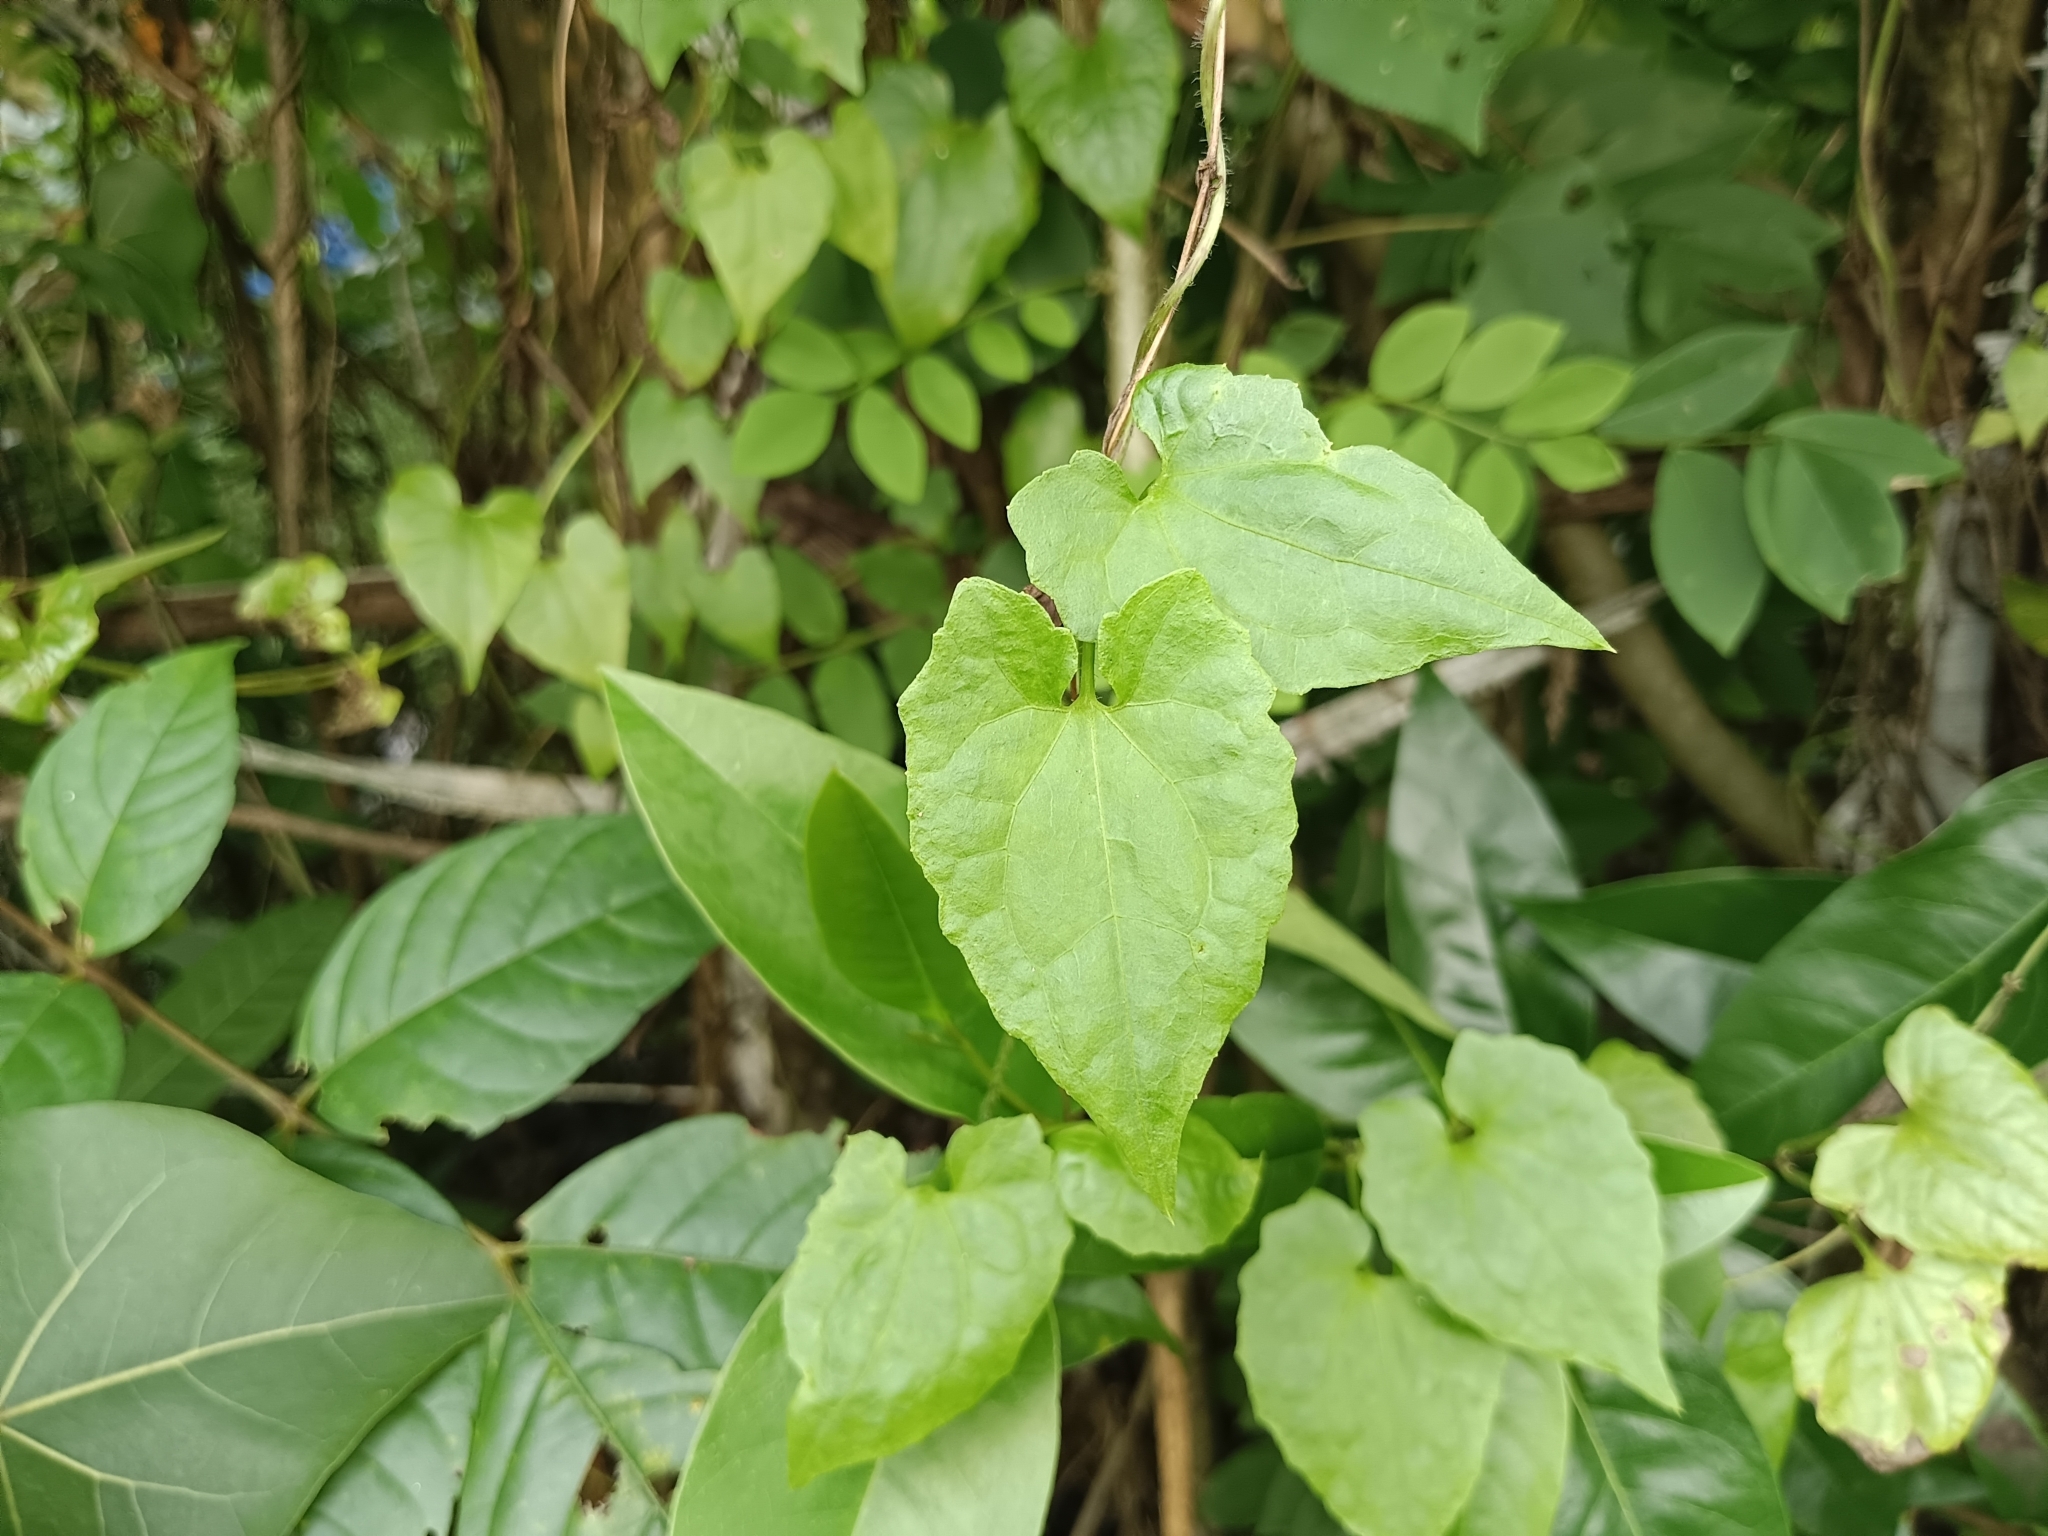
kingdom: Plantae
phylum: Tracheophyta
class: Magnoliopsida
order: Asterales
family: Asteraceae
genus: Mikania
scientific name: Mikania micrantha
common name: Mile-a-minute
